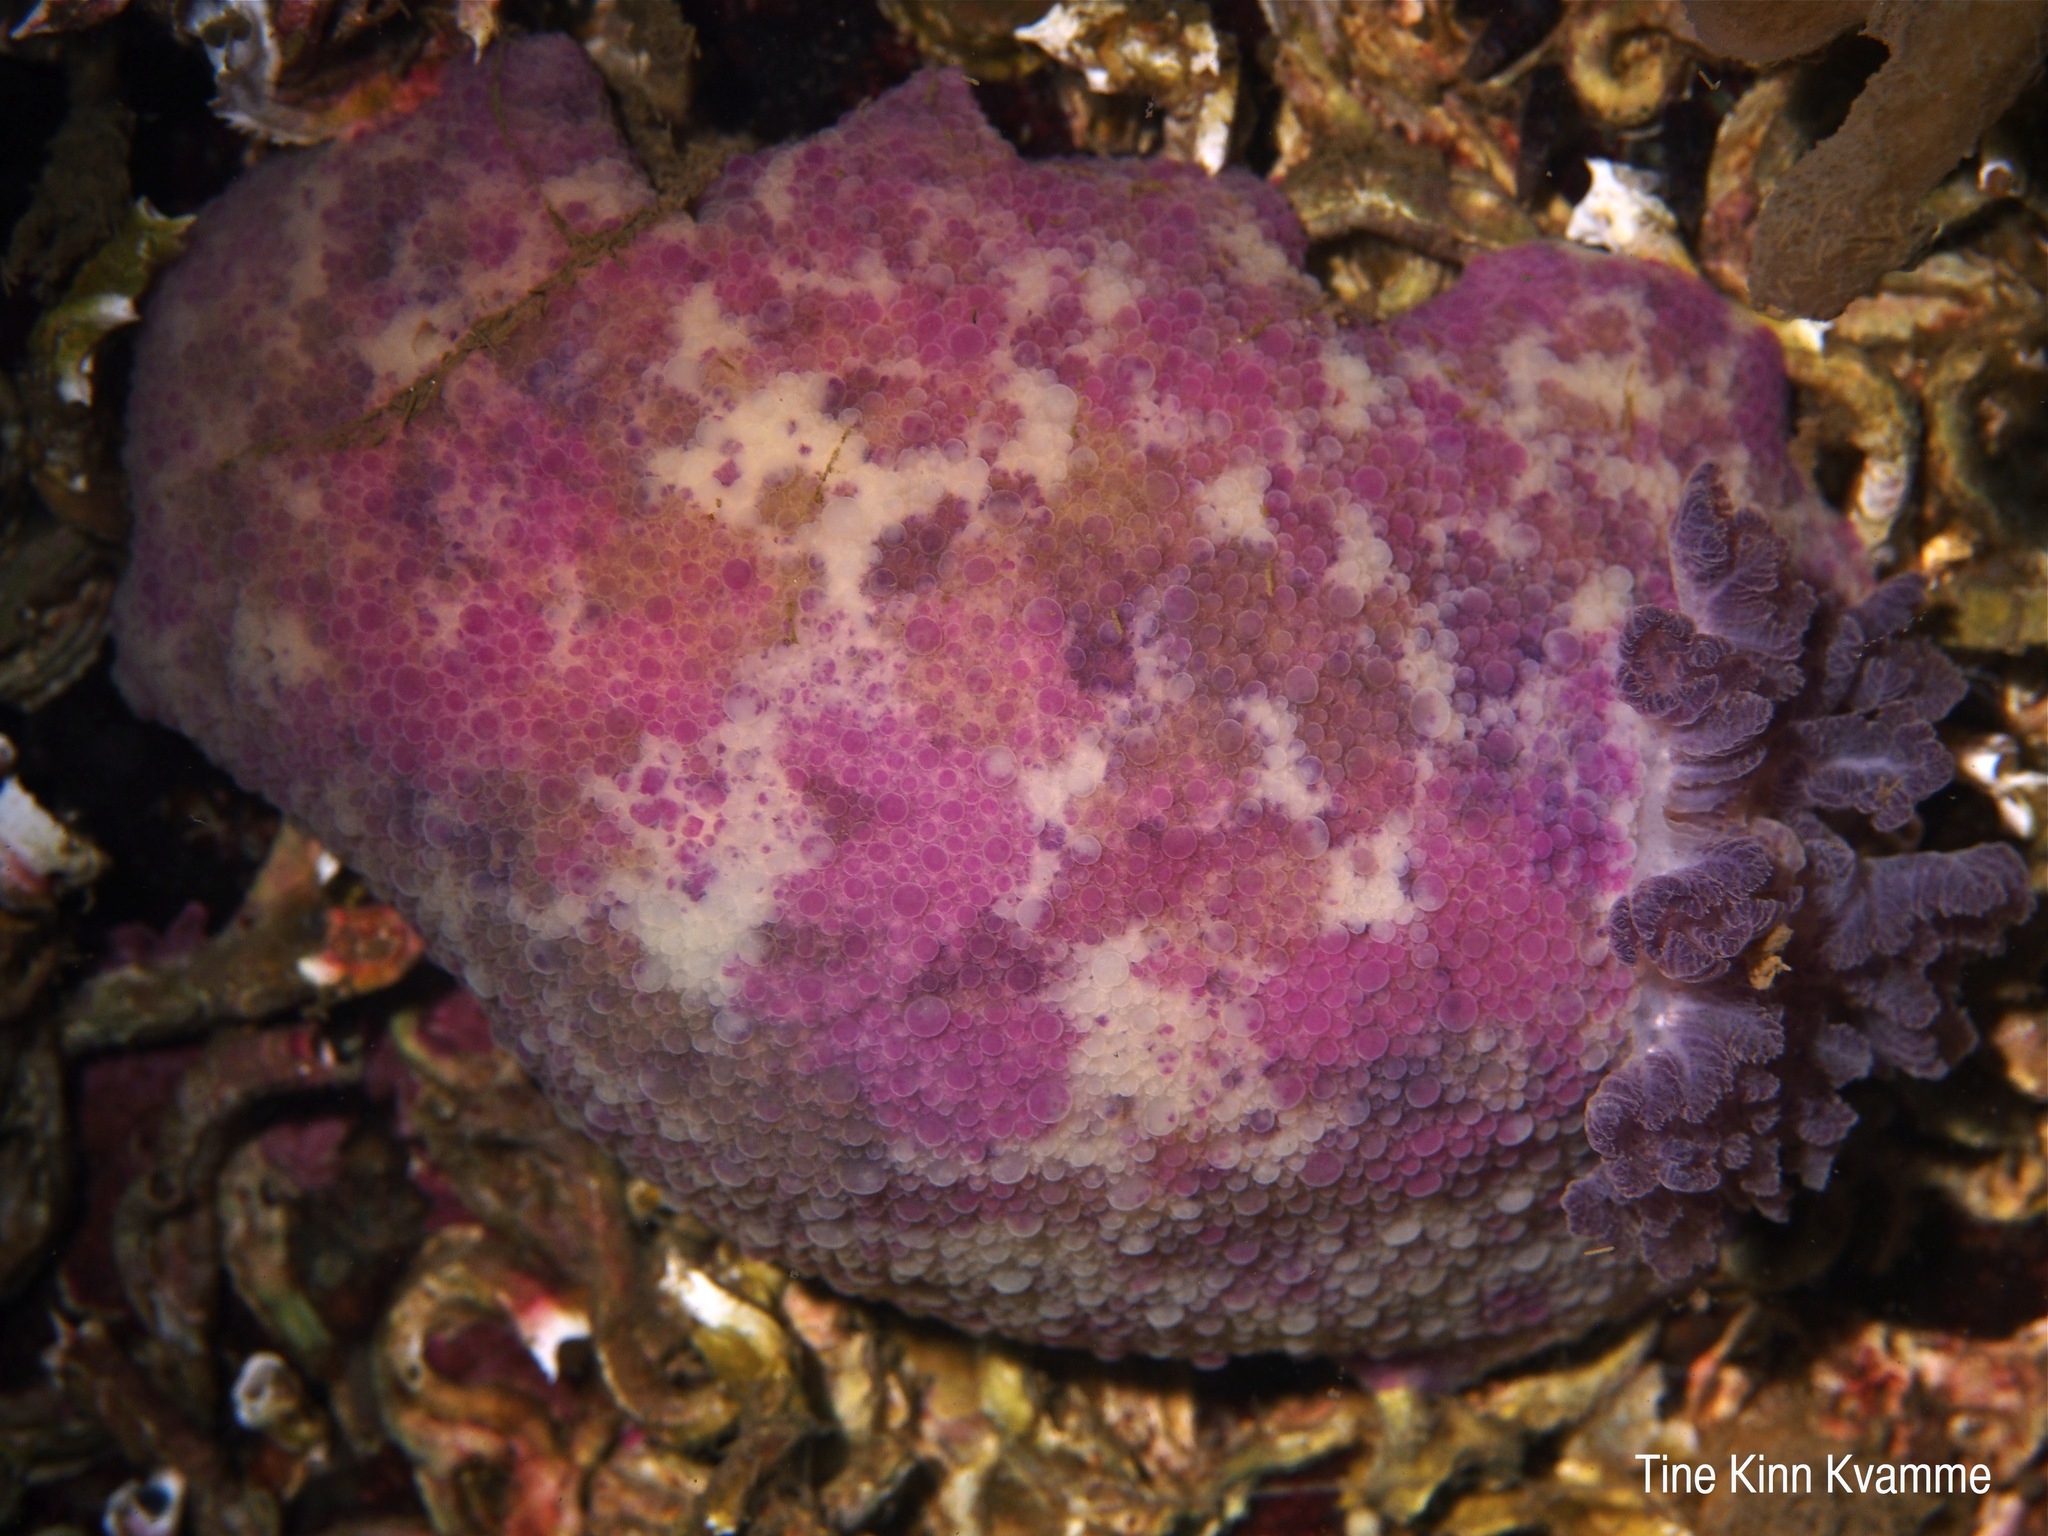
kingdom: Animalia
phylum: Mollusca
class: Gastropoda
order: Nudibranchia
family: Dorididae
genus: Doris
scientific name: Doris pseudoargus
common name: Sea lemon
